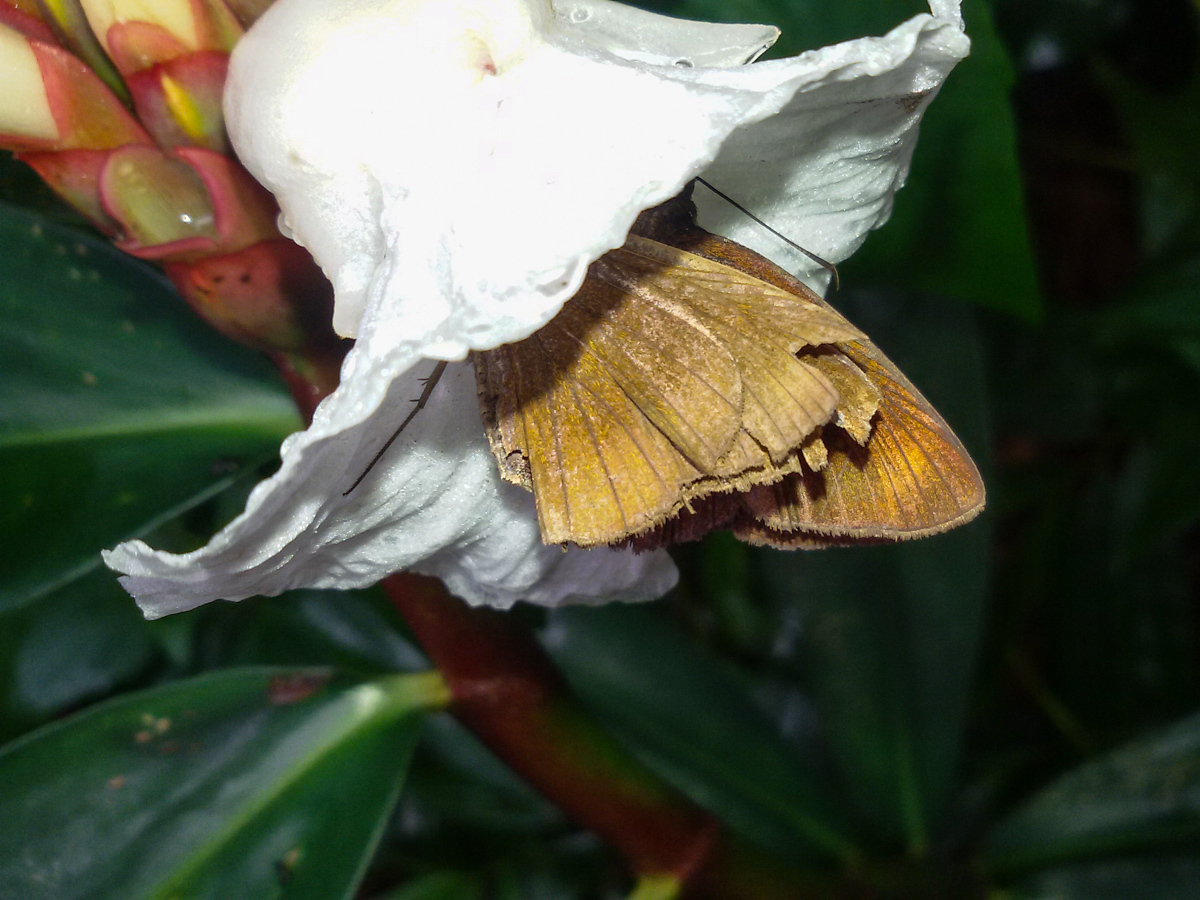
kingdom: Animalia
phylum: Arthropoda
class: Insecta
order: Lepidoptera
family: Hesperiidae
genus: Ancistroides
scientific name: Ancistroides nigrita
